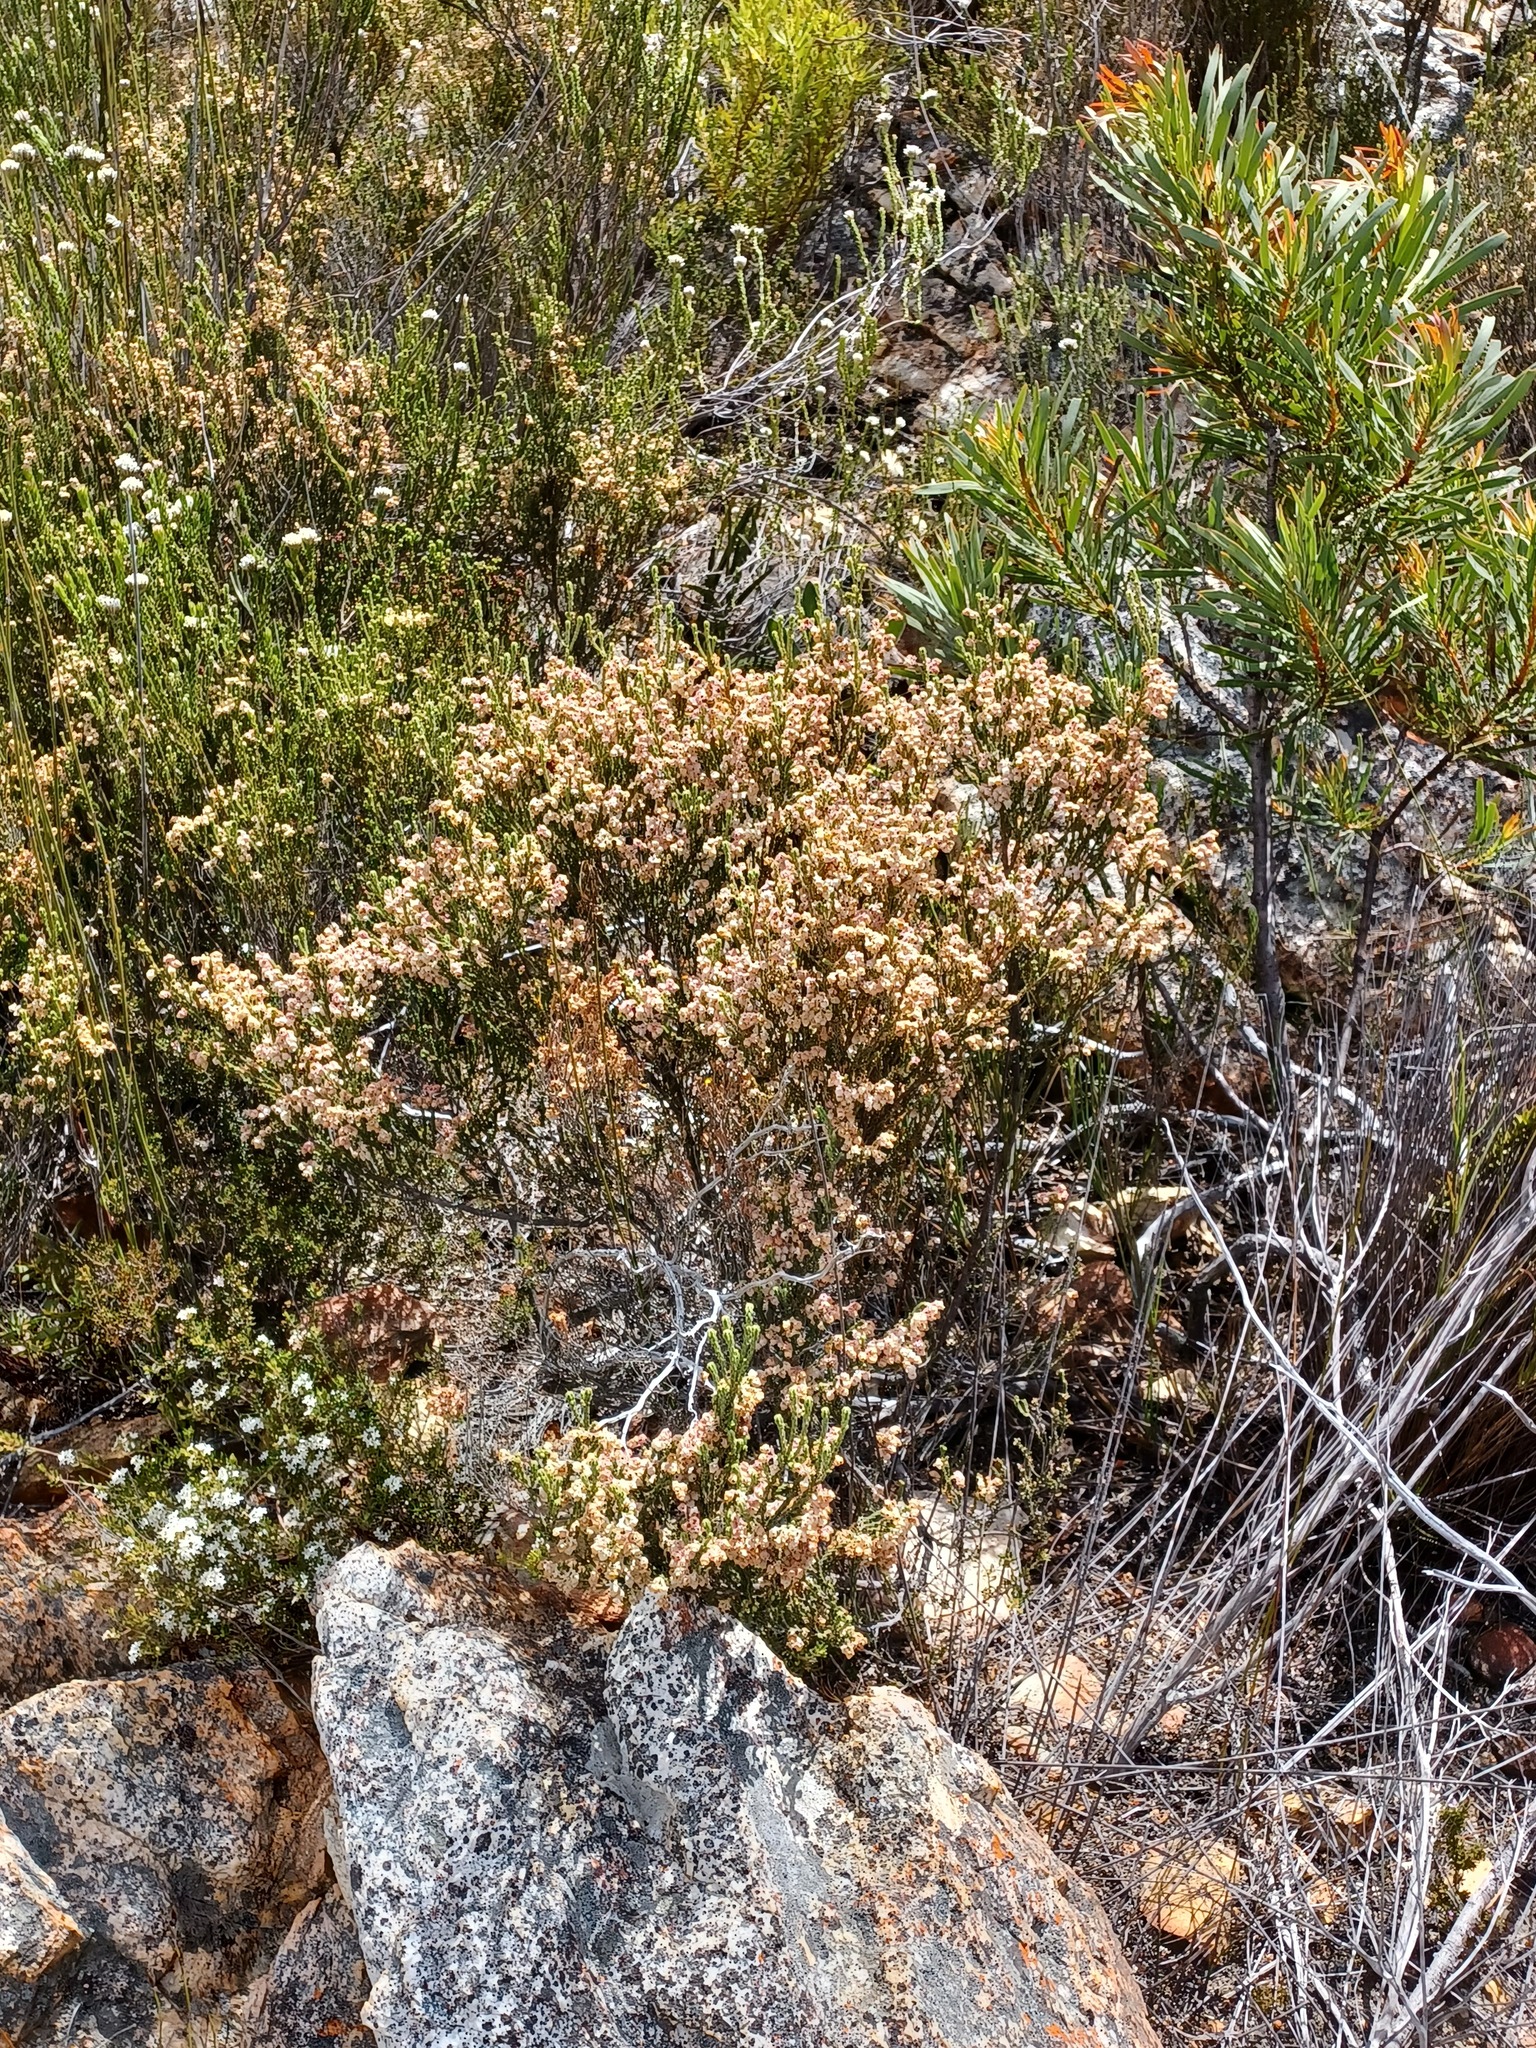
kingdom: Plantae
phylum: Tracheophyta
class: Magnoliopsida
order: Ericales
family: Ericaceae
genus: Erica
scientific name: Erica fimbriata
